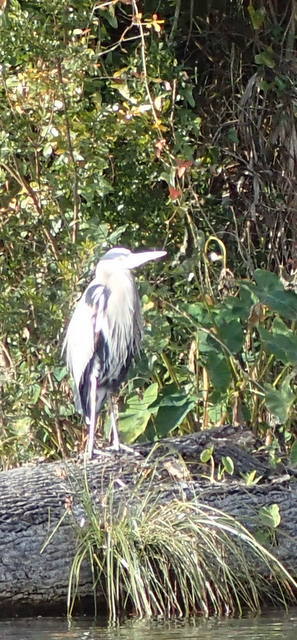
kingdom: Animalia
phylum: Chordata
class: Aves
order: Pelecaniformes
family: Ardeidae
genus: Ardea
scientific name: Ardea herodias
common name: Great blue heron
